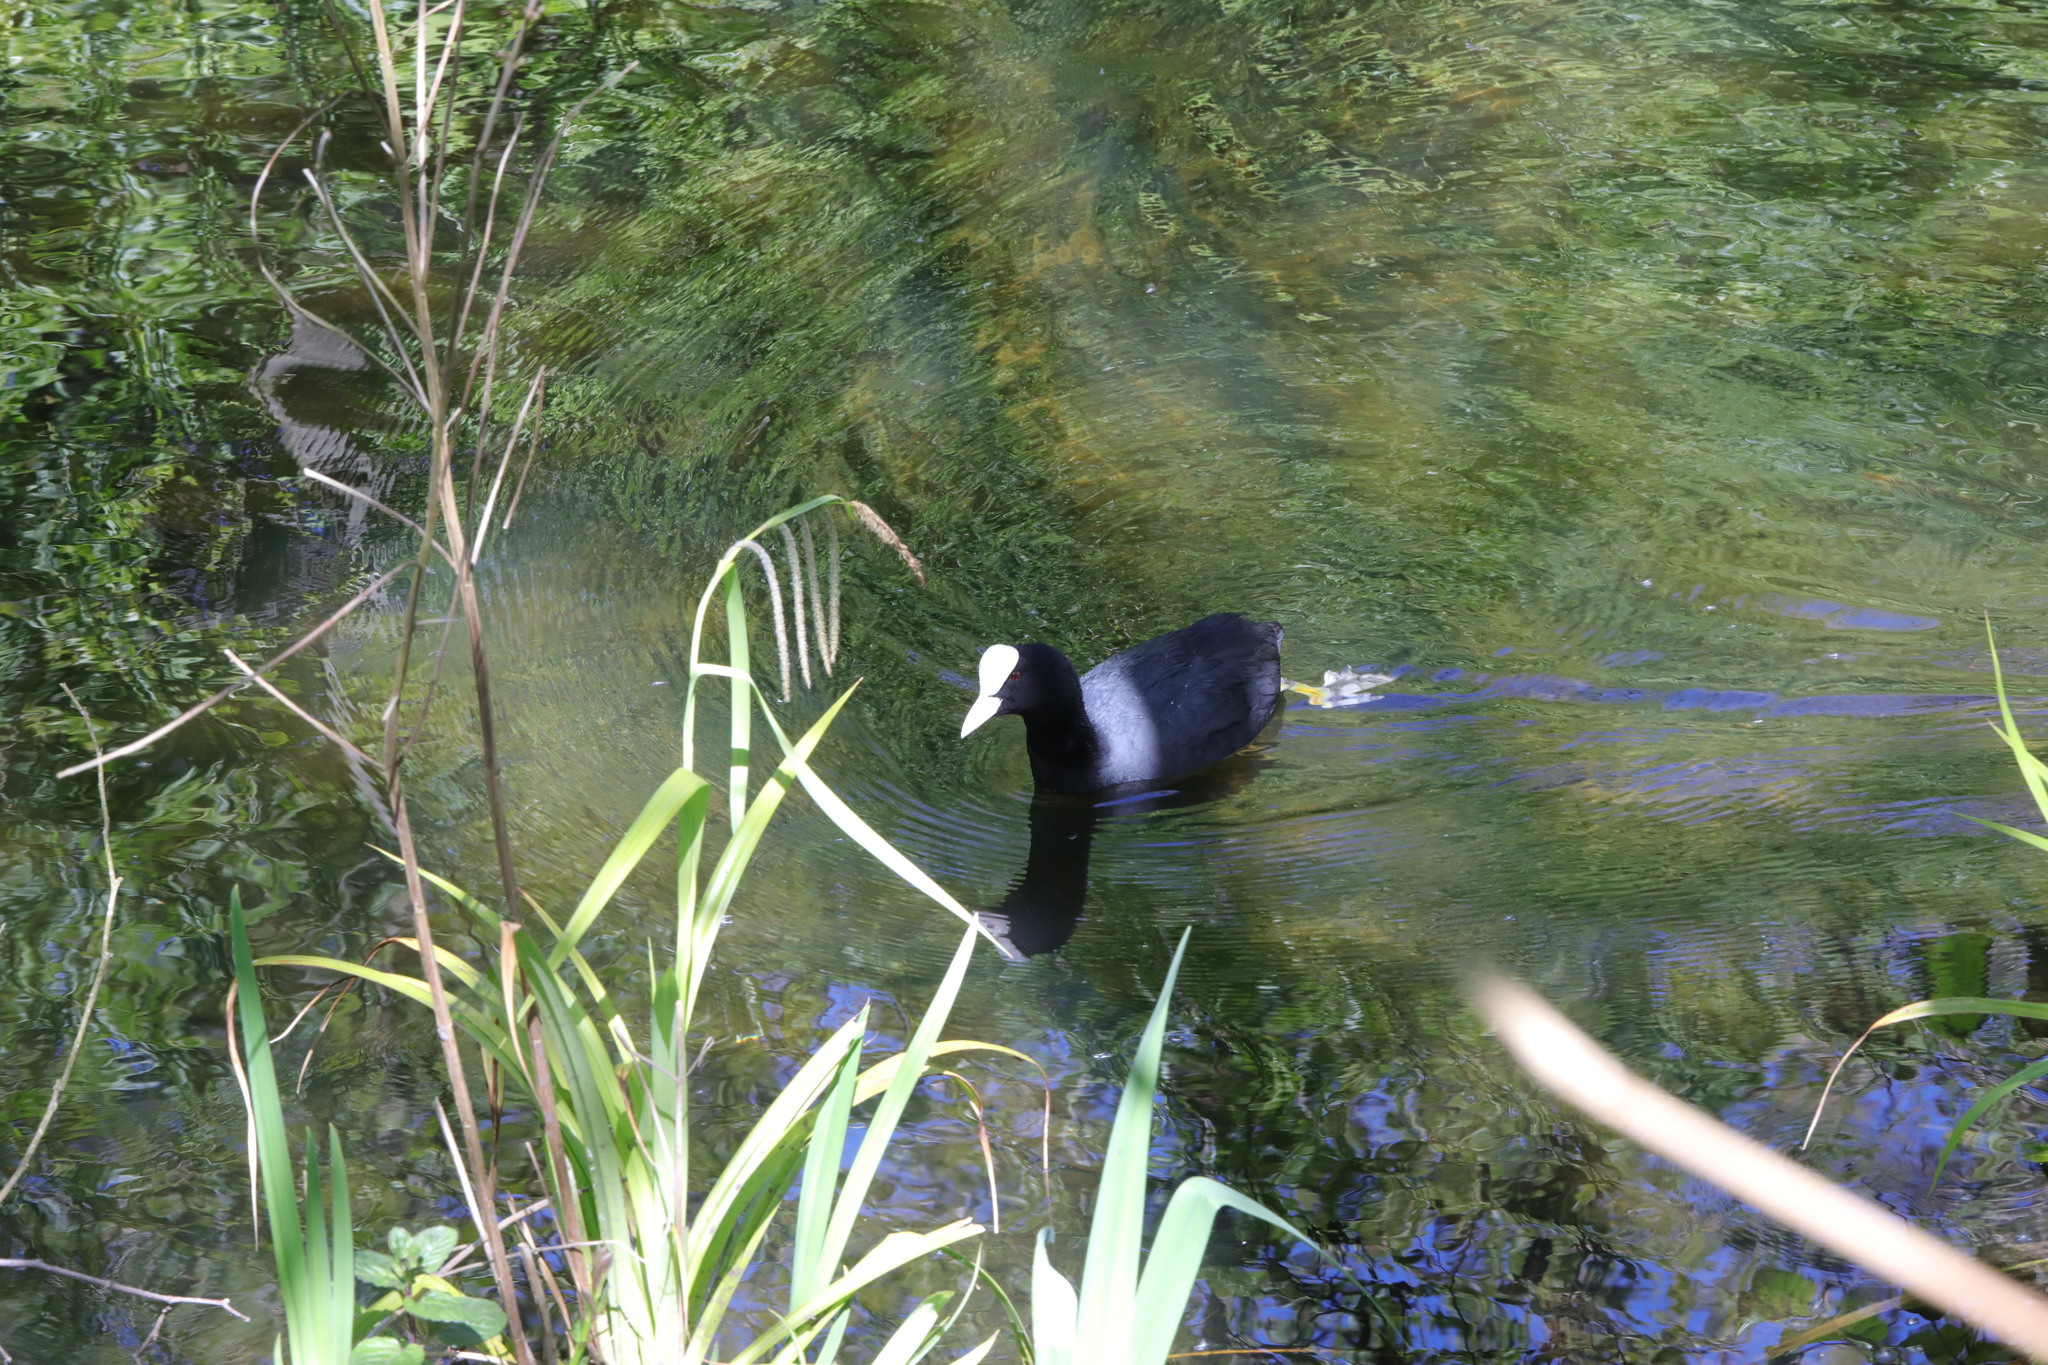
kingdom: Animalia
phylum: Chordata
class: Aves
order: Gruiformes
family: Rallidae
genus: Fulica
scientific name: Fulica atra
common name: Eurasian coot
